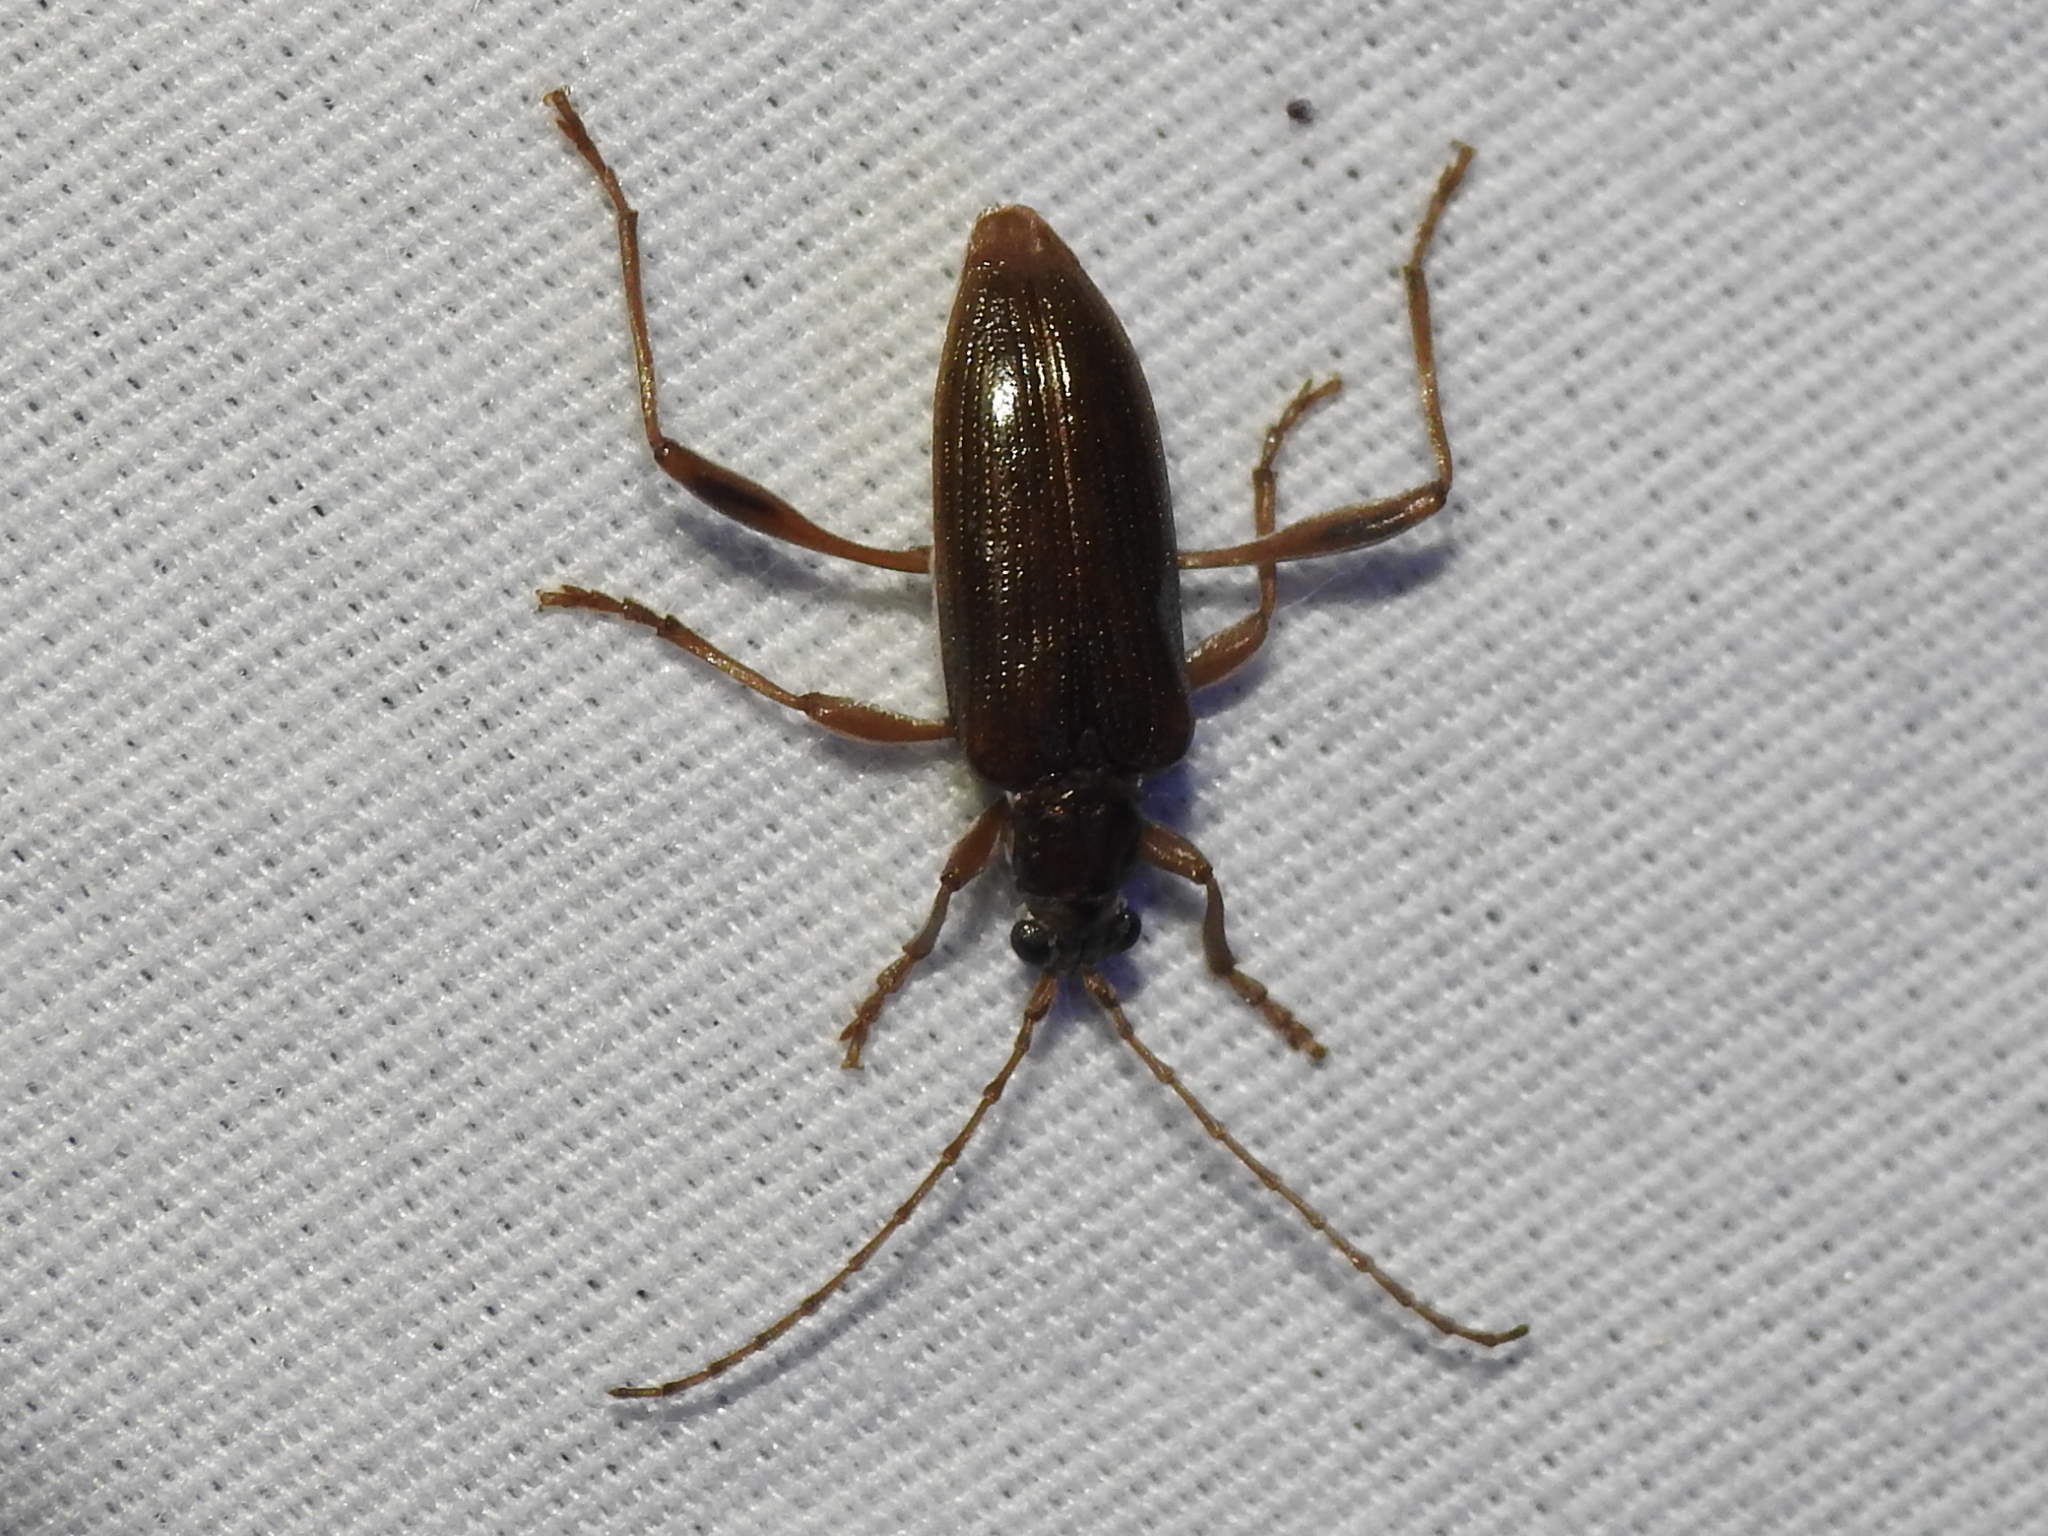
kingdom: Animalia
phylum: Arthropoda
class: Insecta
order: Coleoptera
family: Chrysomelidae
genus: Donacia
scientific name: Donacia hypoleuca
